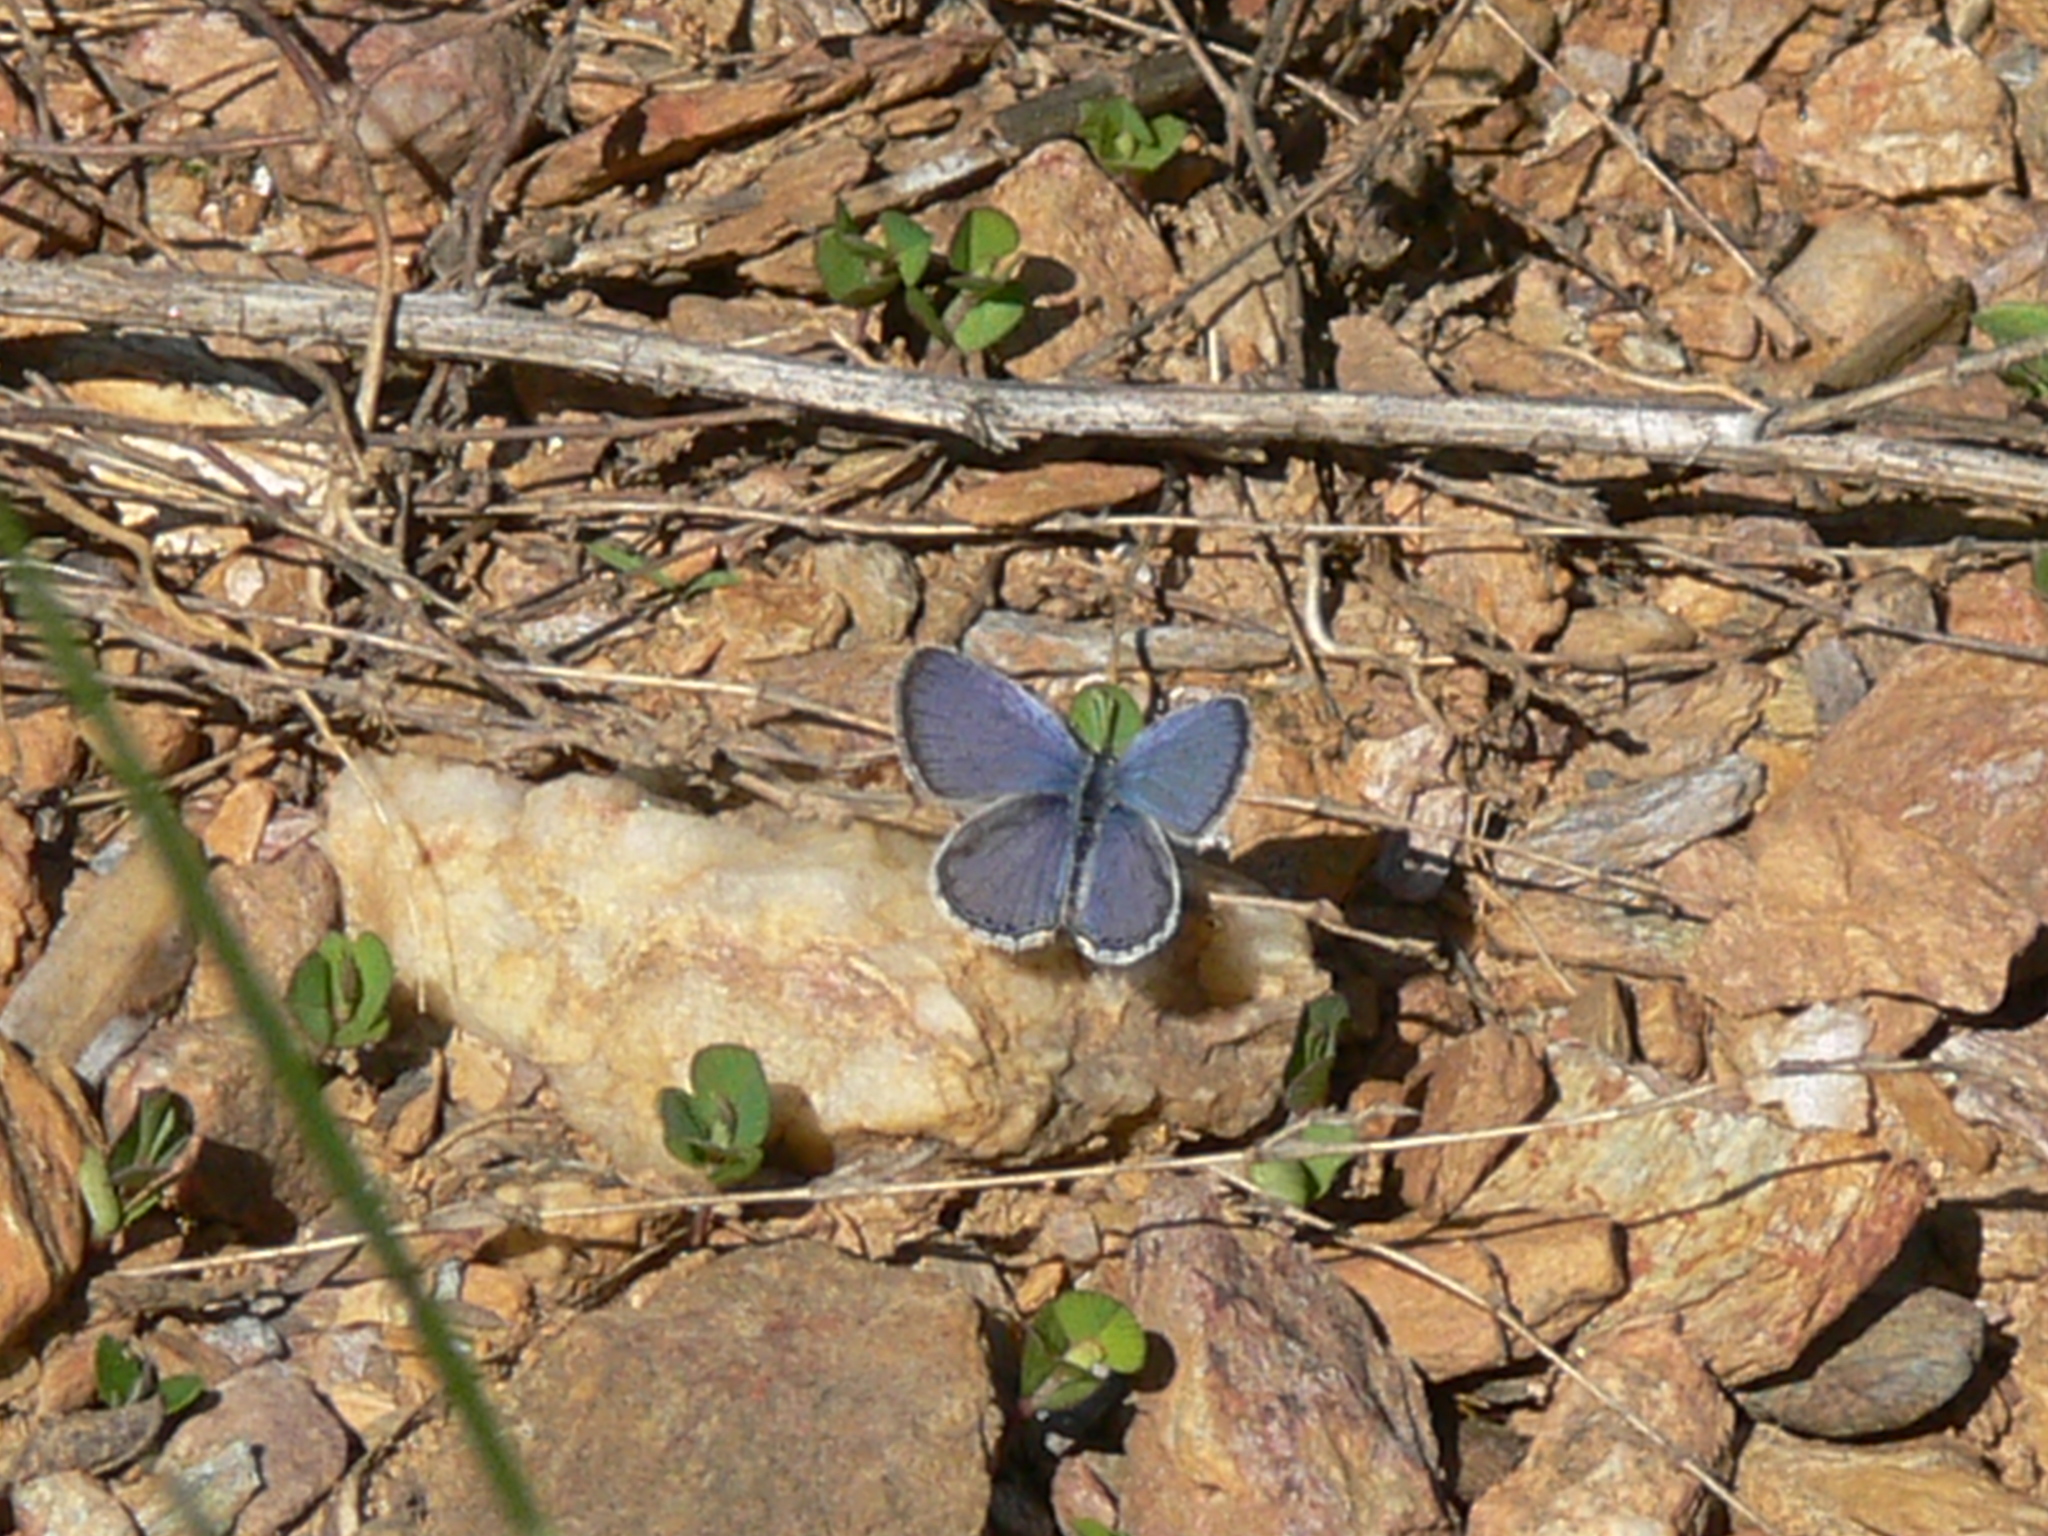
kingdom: Animalia
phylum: Arthropoda
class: Insecta
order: Lepidoptera
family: Lycaenidae
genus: Elkalyce
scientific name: Elkalyce comyntas
